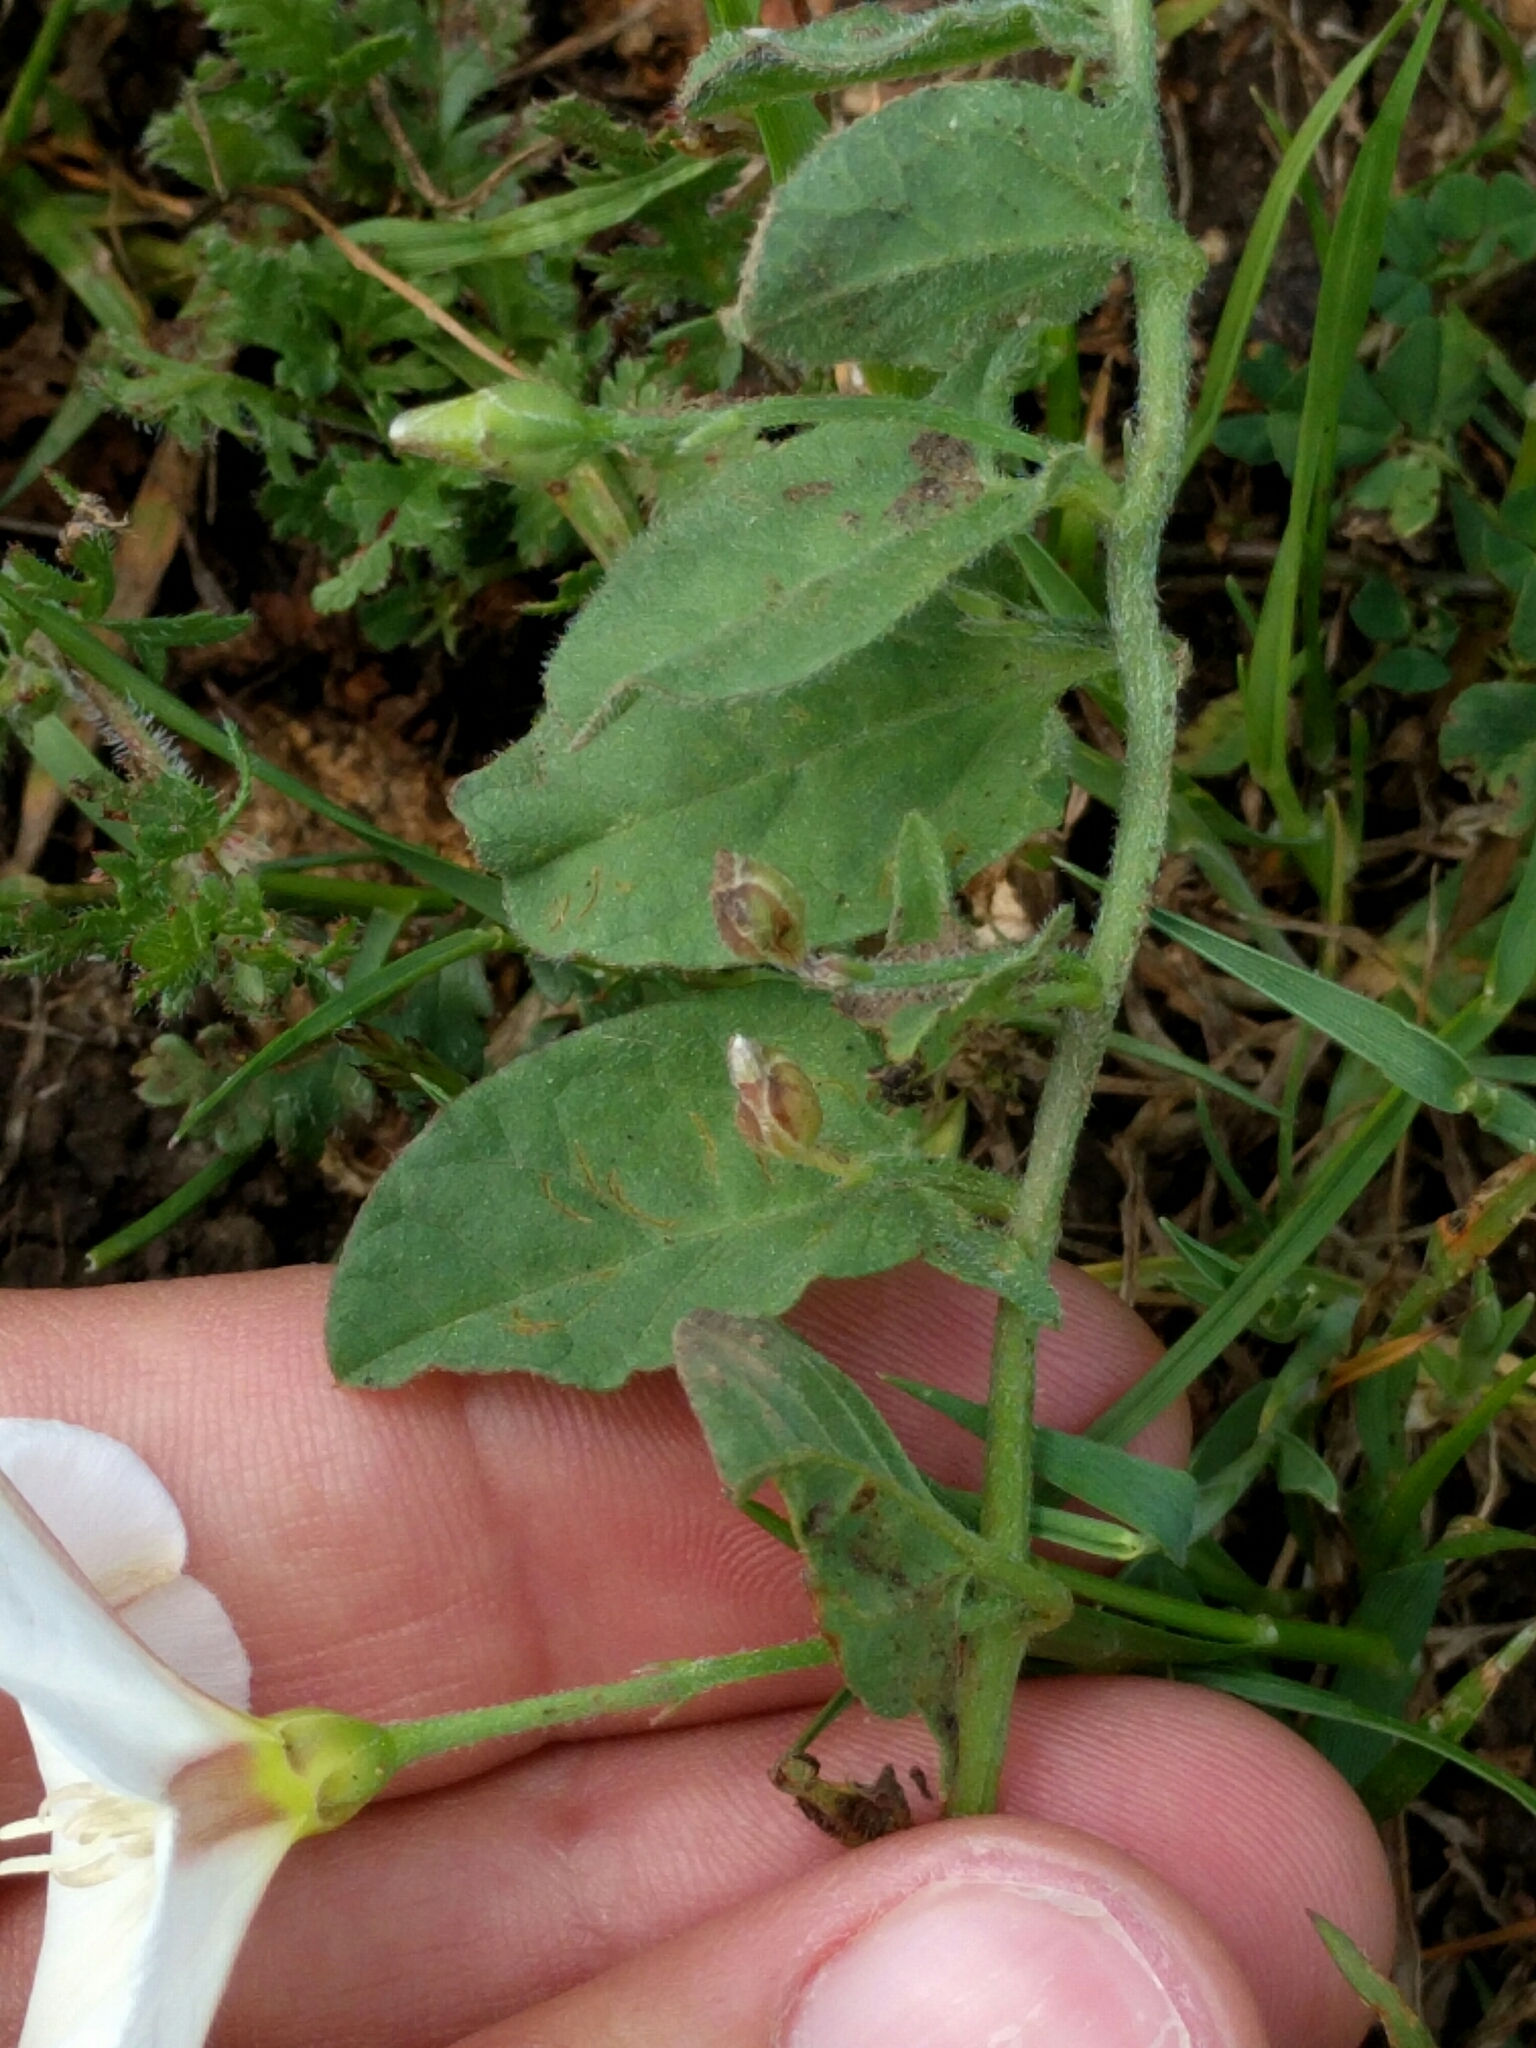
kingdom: Plantae
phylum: Tracheophyta
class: Magnoliopsida
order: Solanales
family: Convolvulaceae
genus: Convolvulus
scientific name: Convolvulus arvensis
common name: Field bindweed
